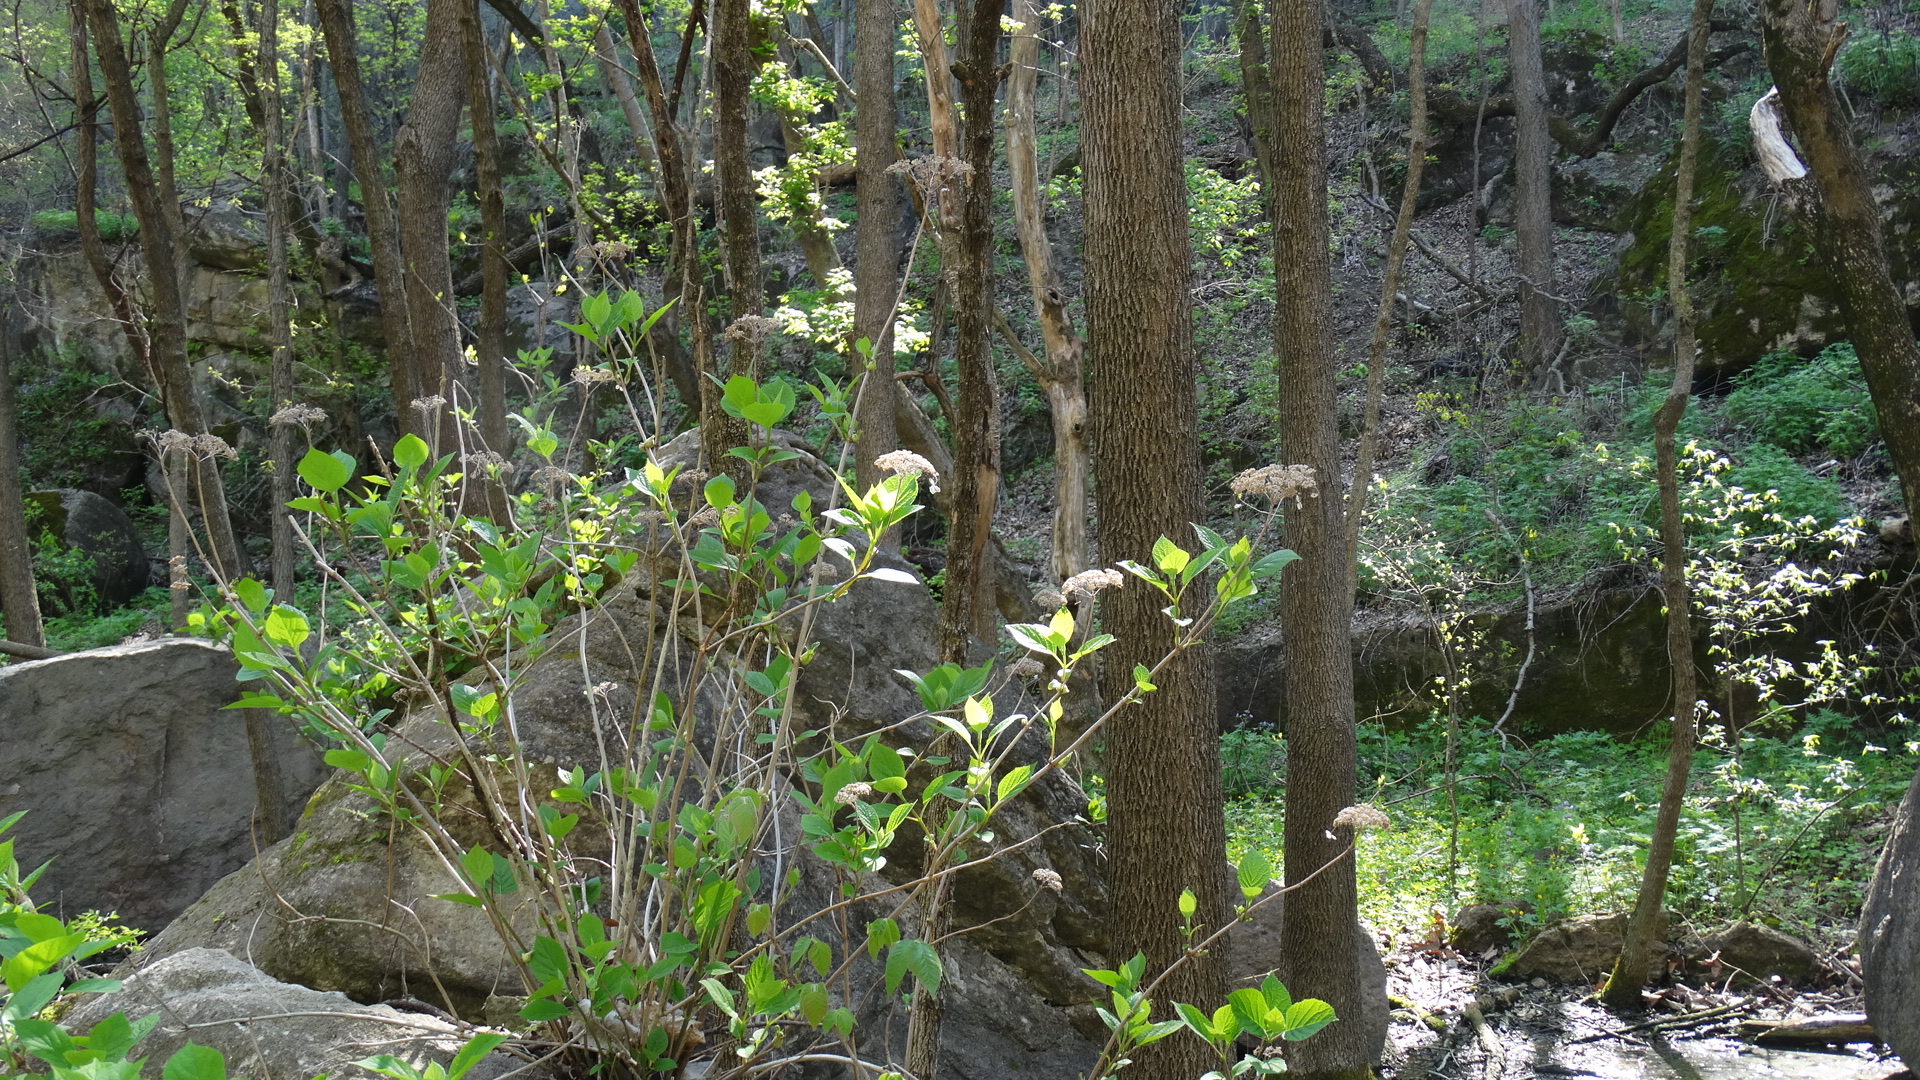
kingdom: Plantae
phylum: Tracheophyta
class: Magnoliopsida
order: Cornales
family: Hydrangeaceae
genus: Hydrangea
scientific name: Hydrangea arborescens
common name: Sevenbark
